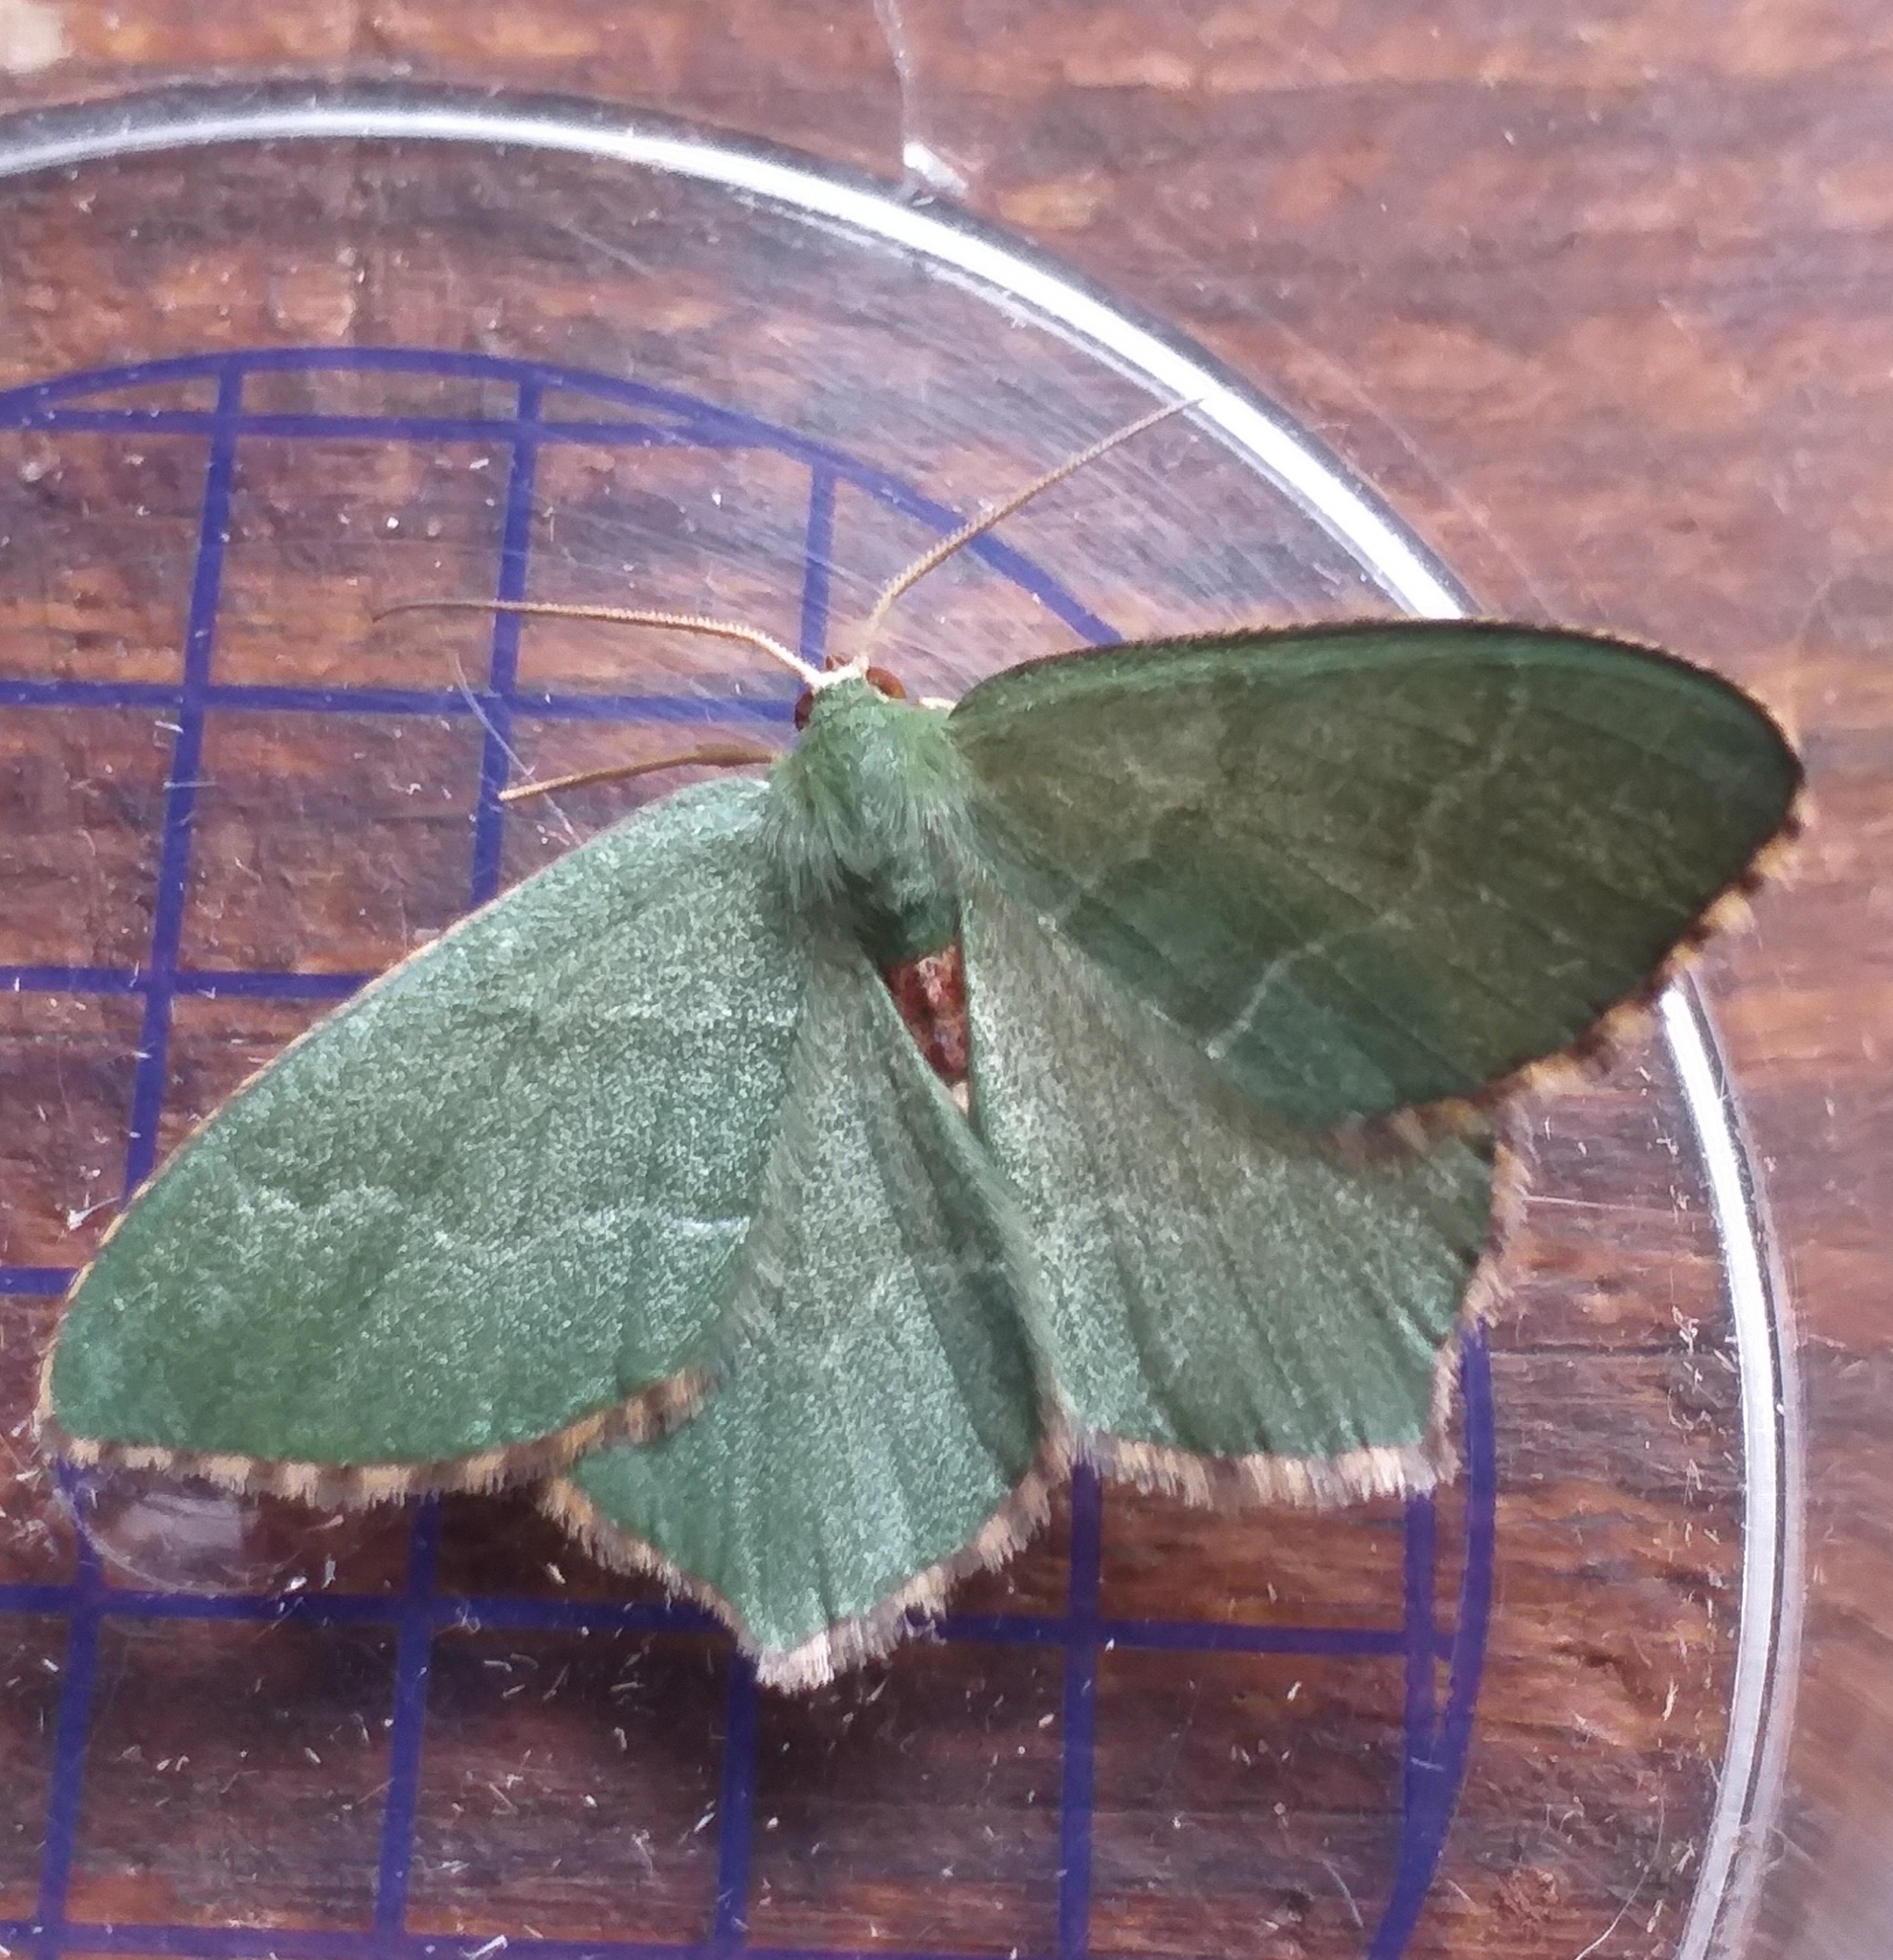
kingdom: Animalia
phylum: Arthropoda
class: Insecta
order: Lepidoptera
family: Geometridae
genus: Hemithea
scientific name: Hemithea aestivaria
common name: Common emerald
